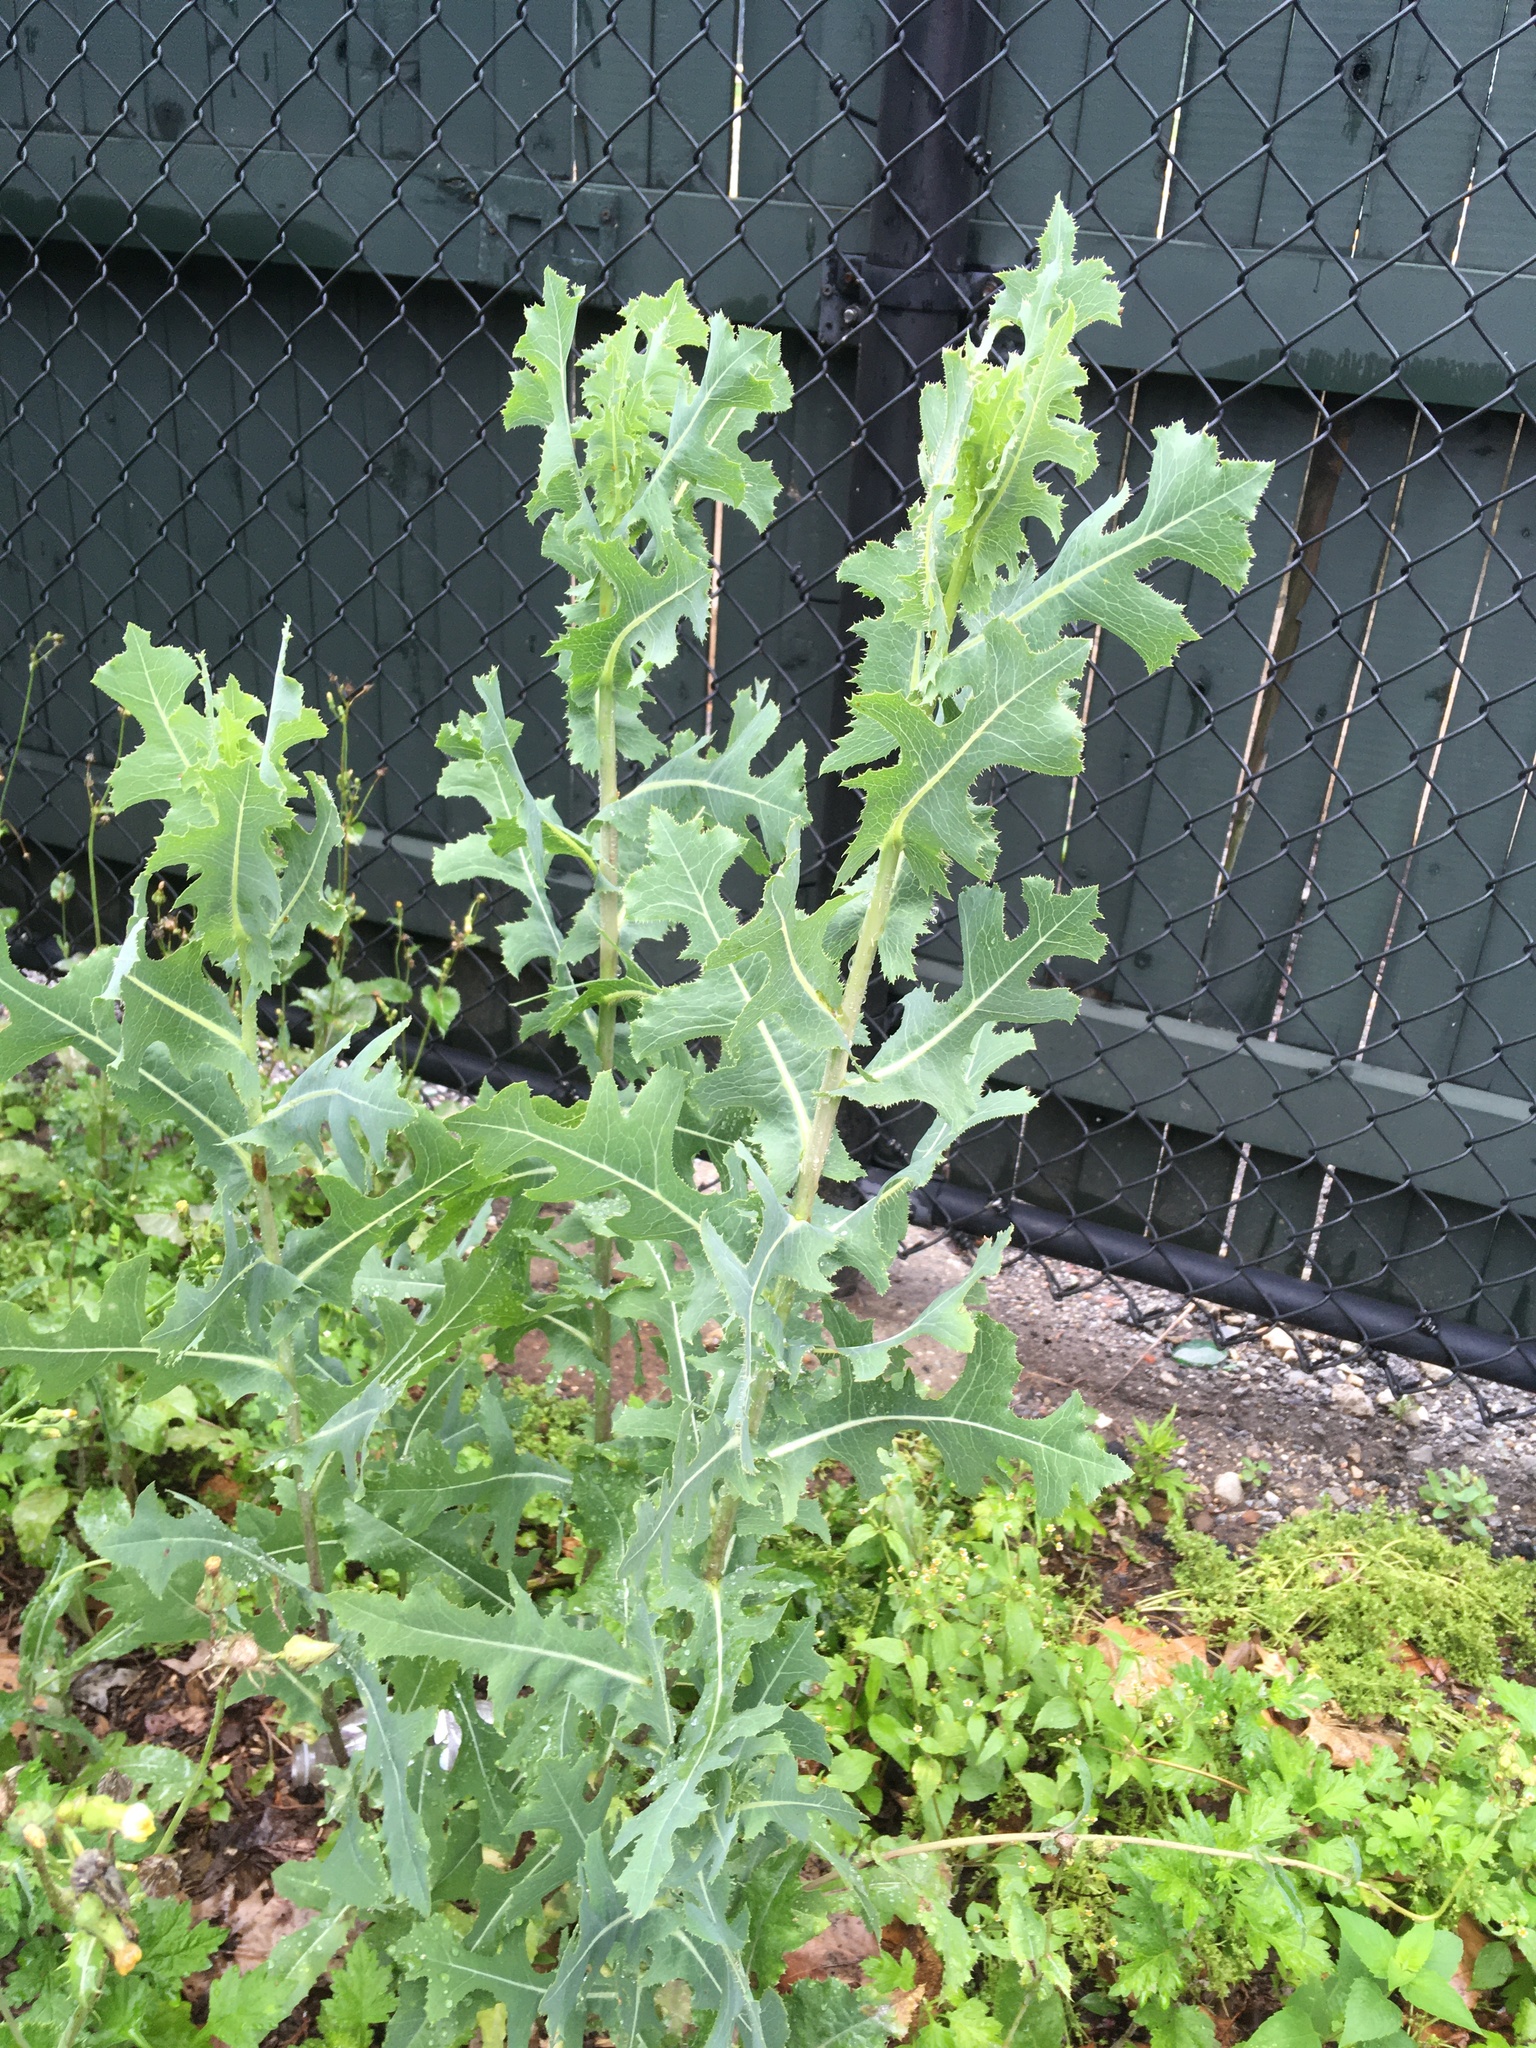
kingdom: Plantae
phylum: Tracheophyta
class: Magnoliopsida
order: Asterales
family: Asteraceae
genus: Lactuca
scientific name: Lactuca serriola
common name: Prickly lettuce
